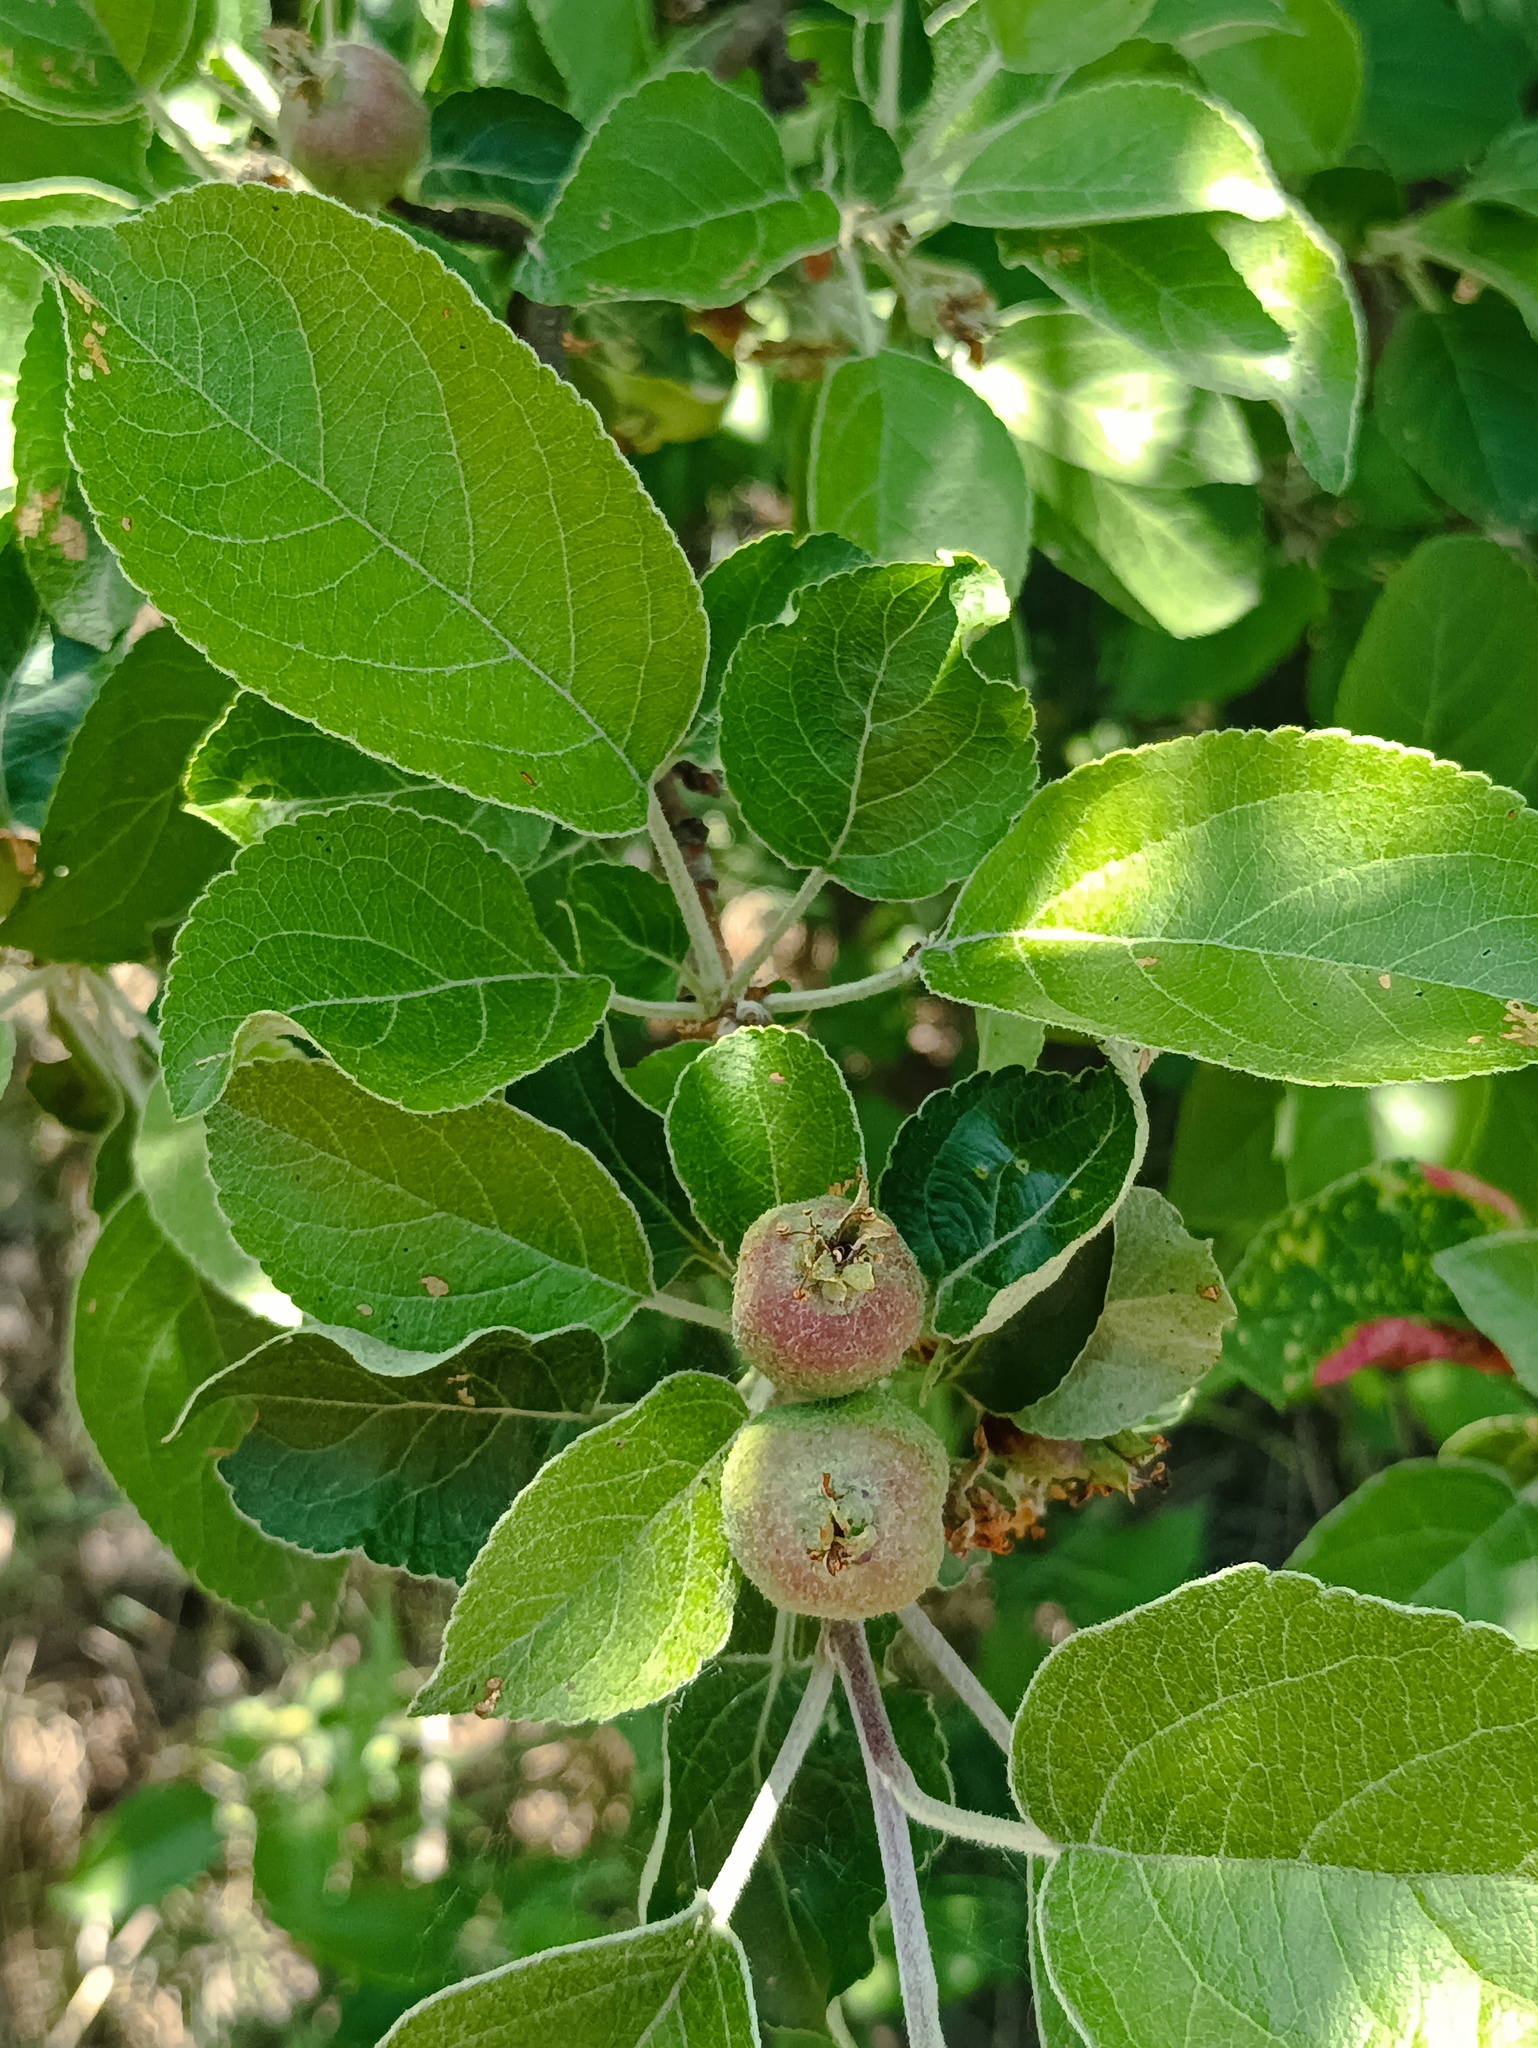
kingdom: Plantae
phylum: Tracheophyta
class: Magnoliopsida
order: Rosales
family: Rosaceae
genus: Malus
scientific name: Malus domestica
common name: Apple
